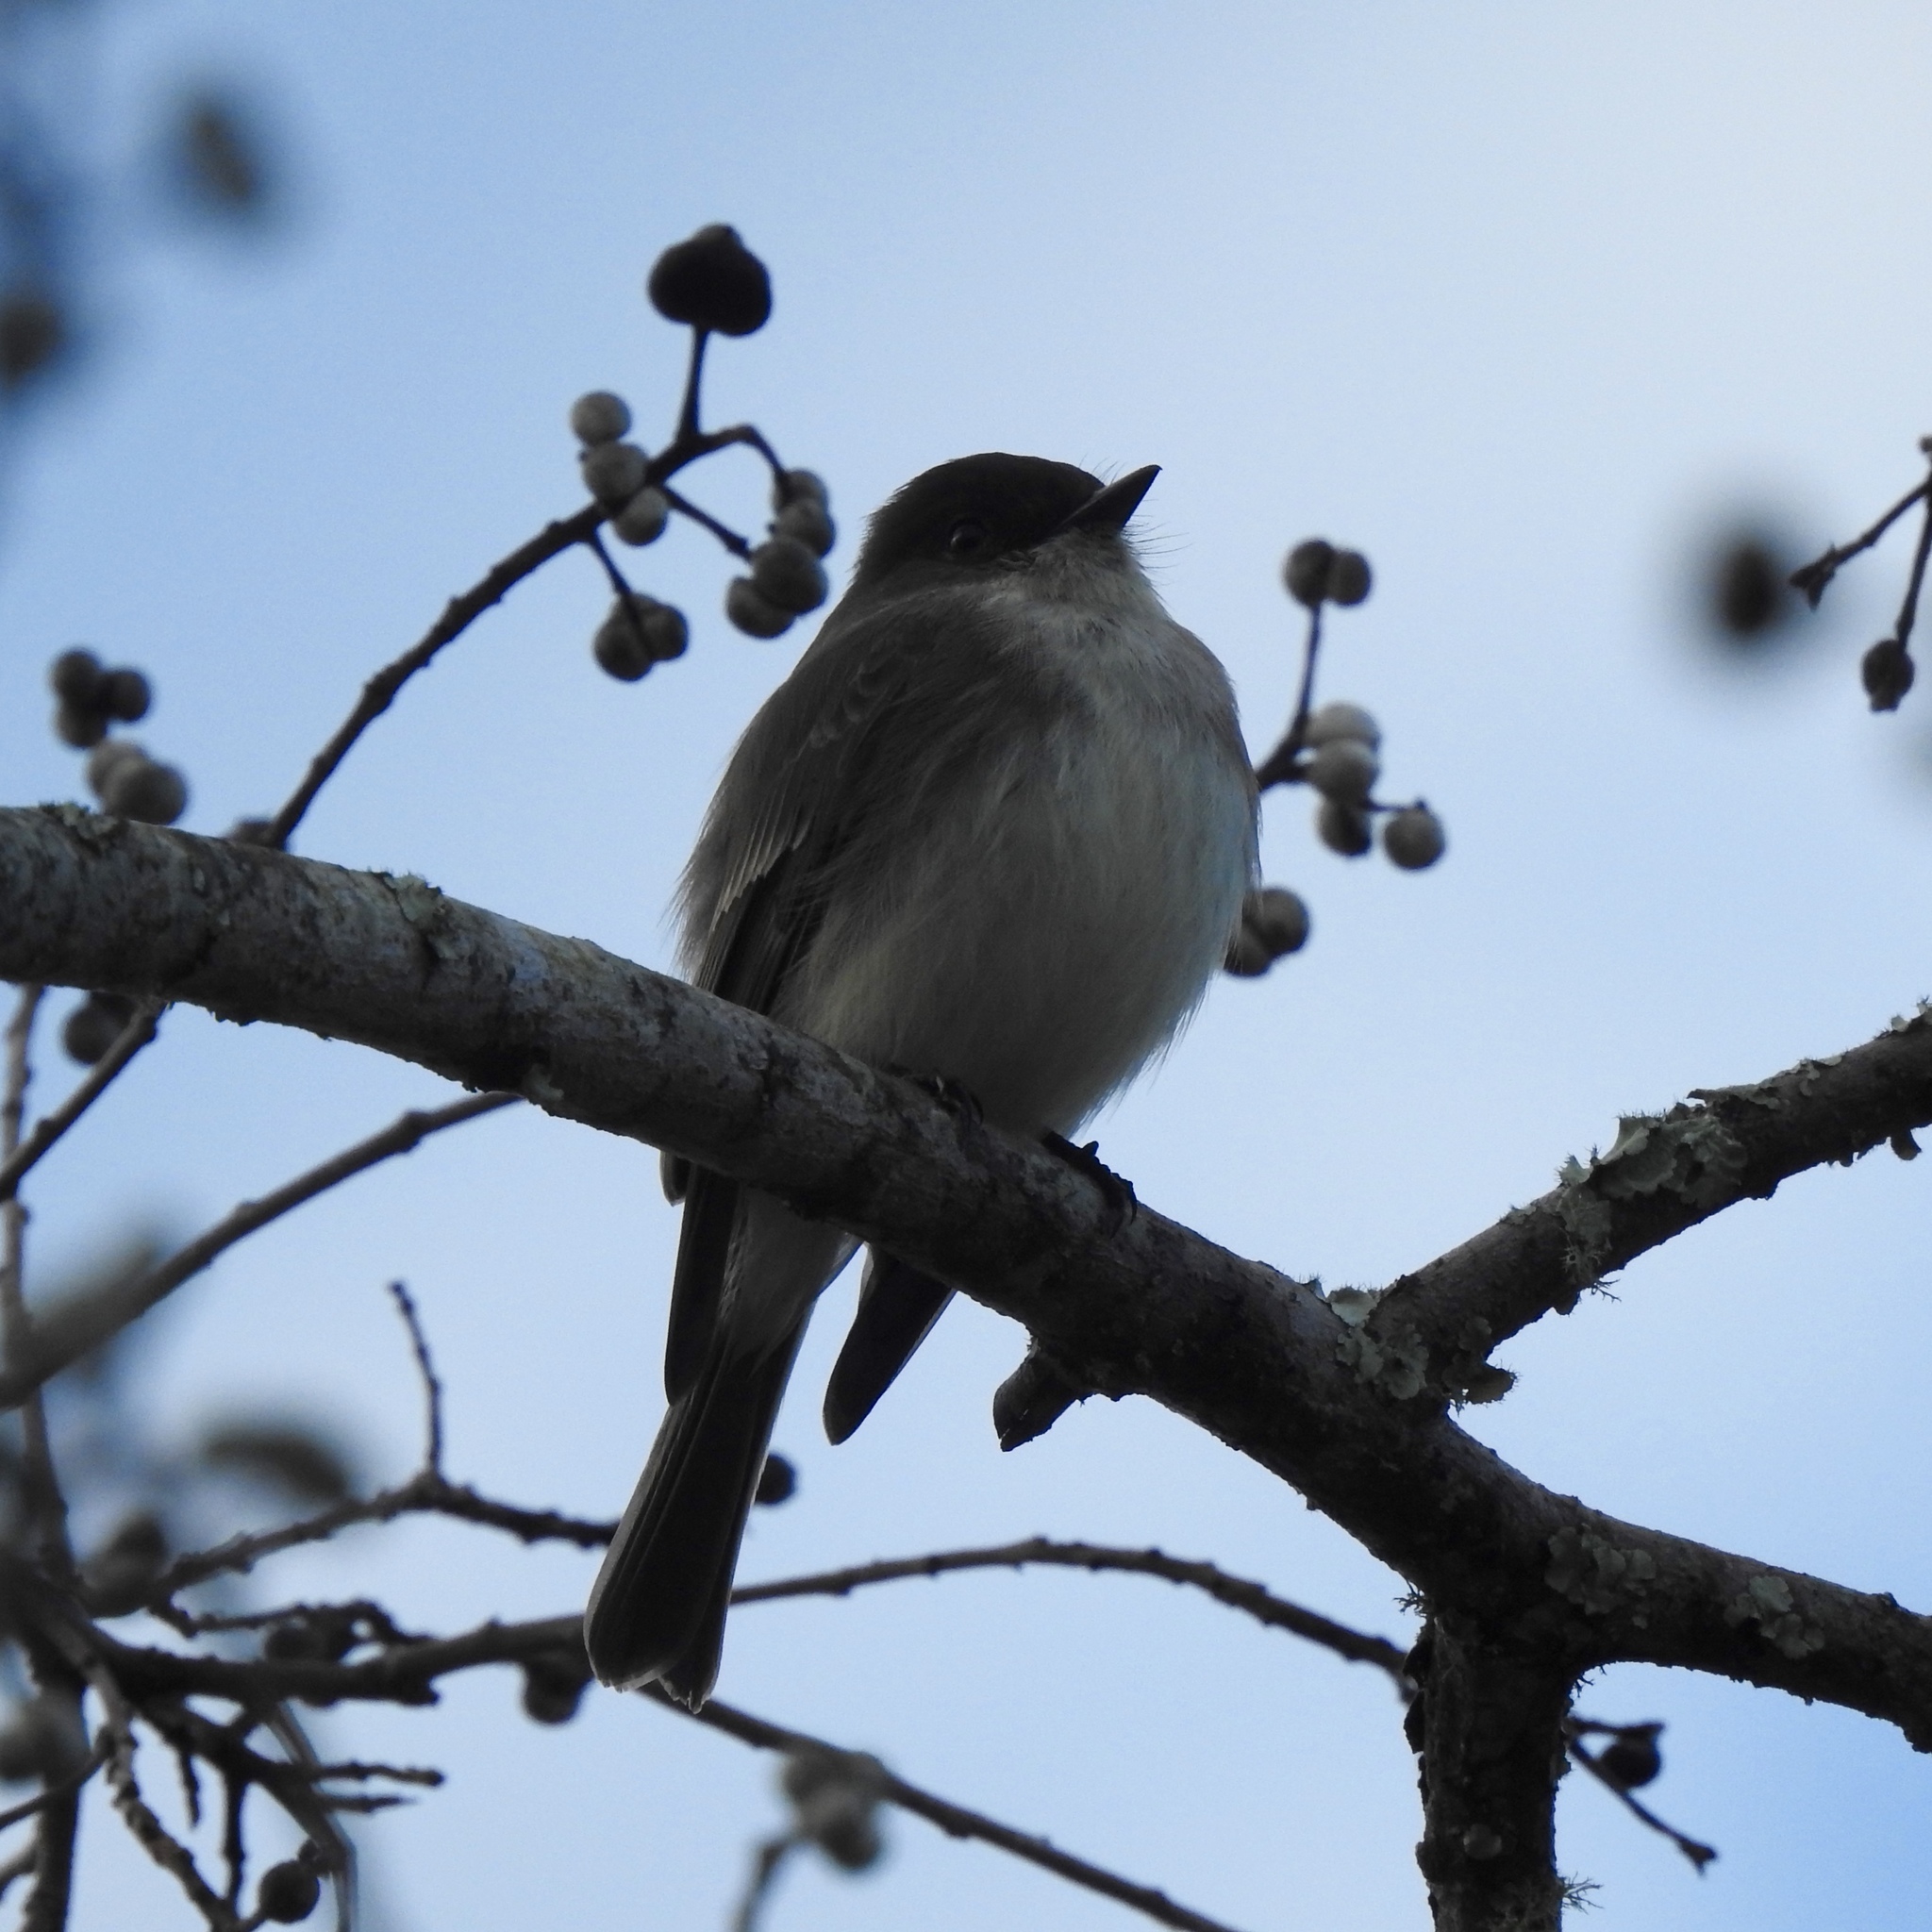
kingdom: Animalia
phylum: Chordata
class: Aves
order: Passeriformes
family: Tyrannidae
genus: Sayornis
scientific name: Sayornis phoebe
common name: Eastern phoebe
